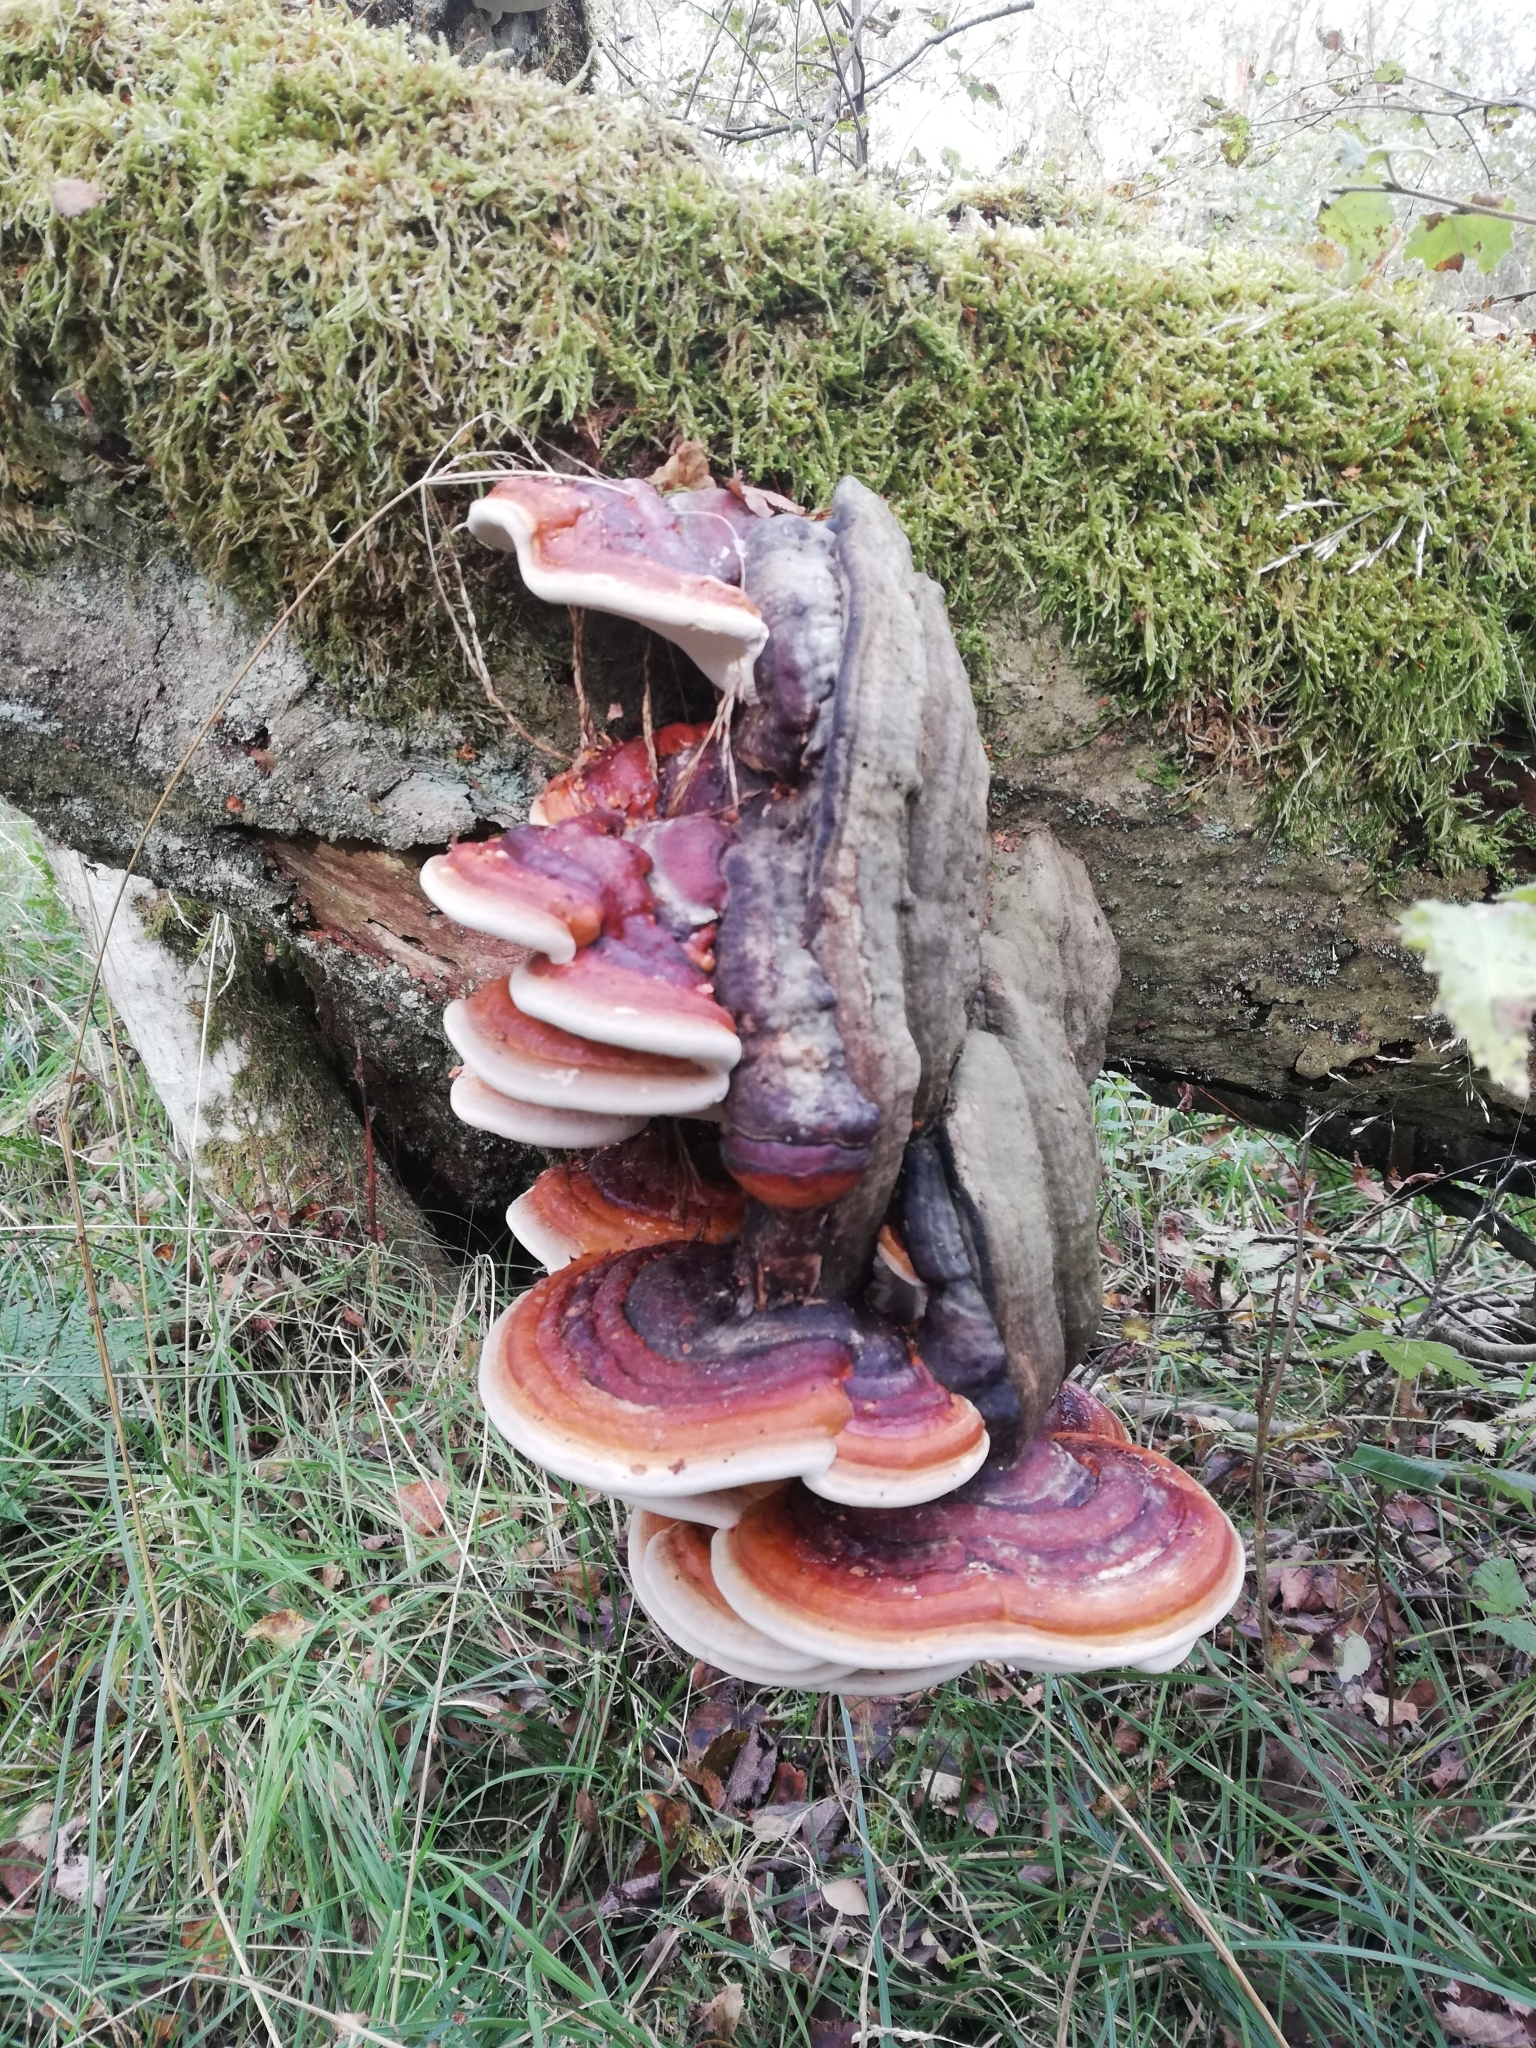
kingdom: Fungi
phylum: Basidiomycota
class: Agaricomycetes
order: Polyporales
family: Fomitopsidaceae
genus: Fomitopsis
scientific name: Fomitopsis pinicola
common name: Red-belted bracket
